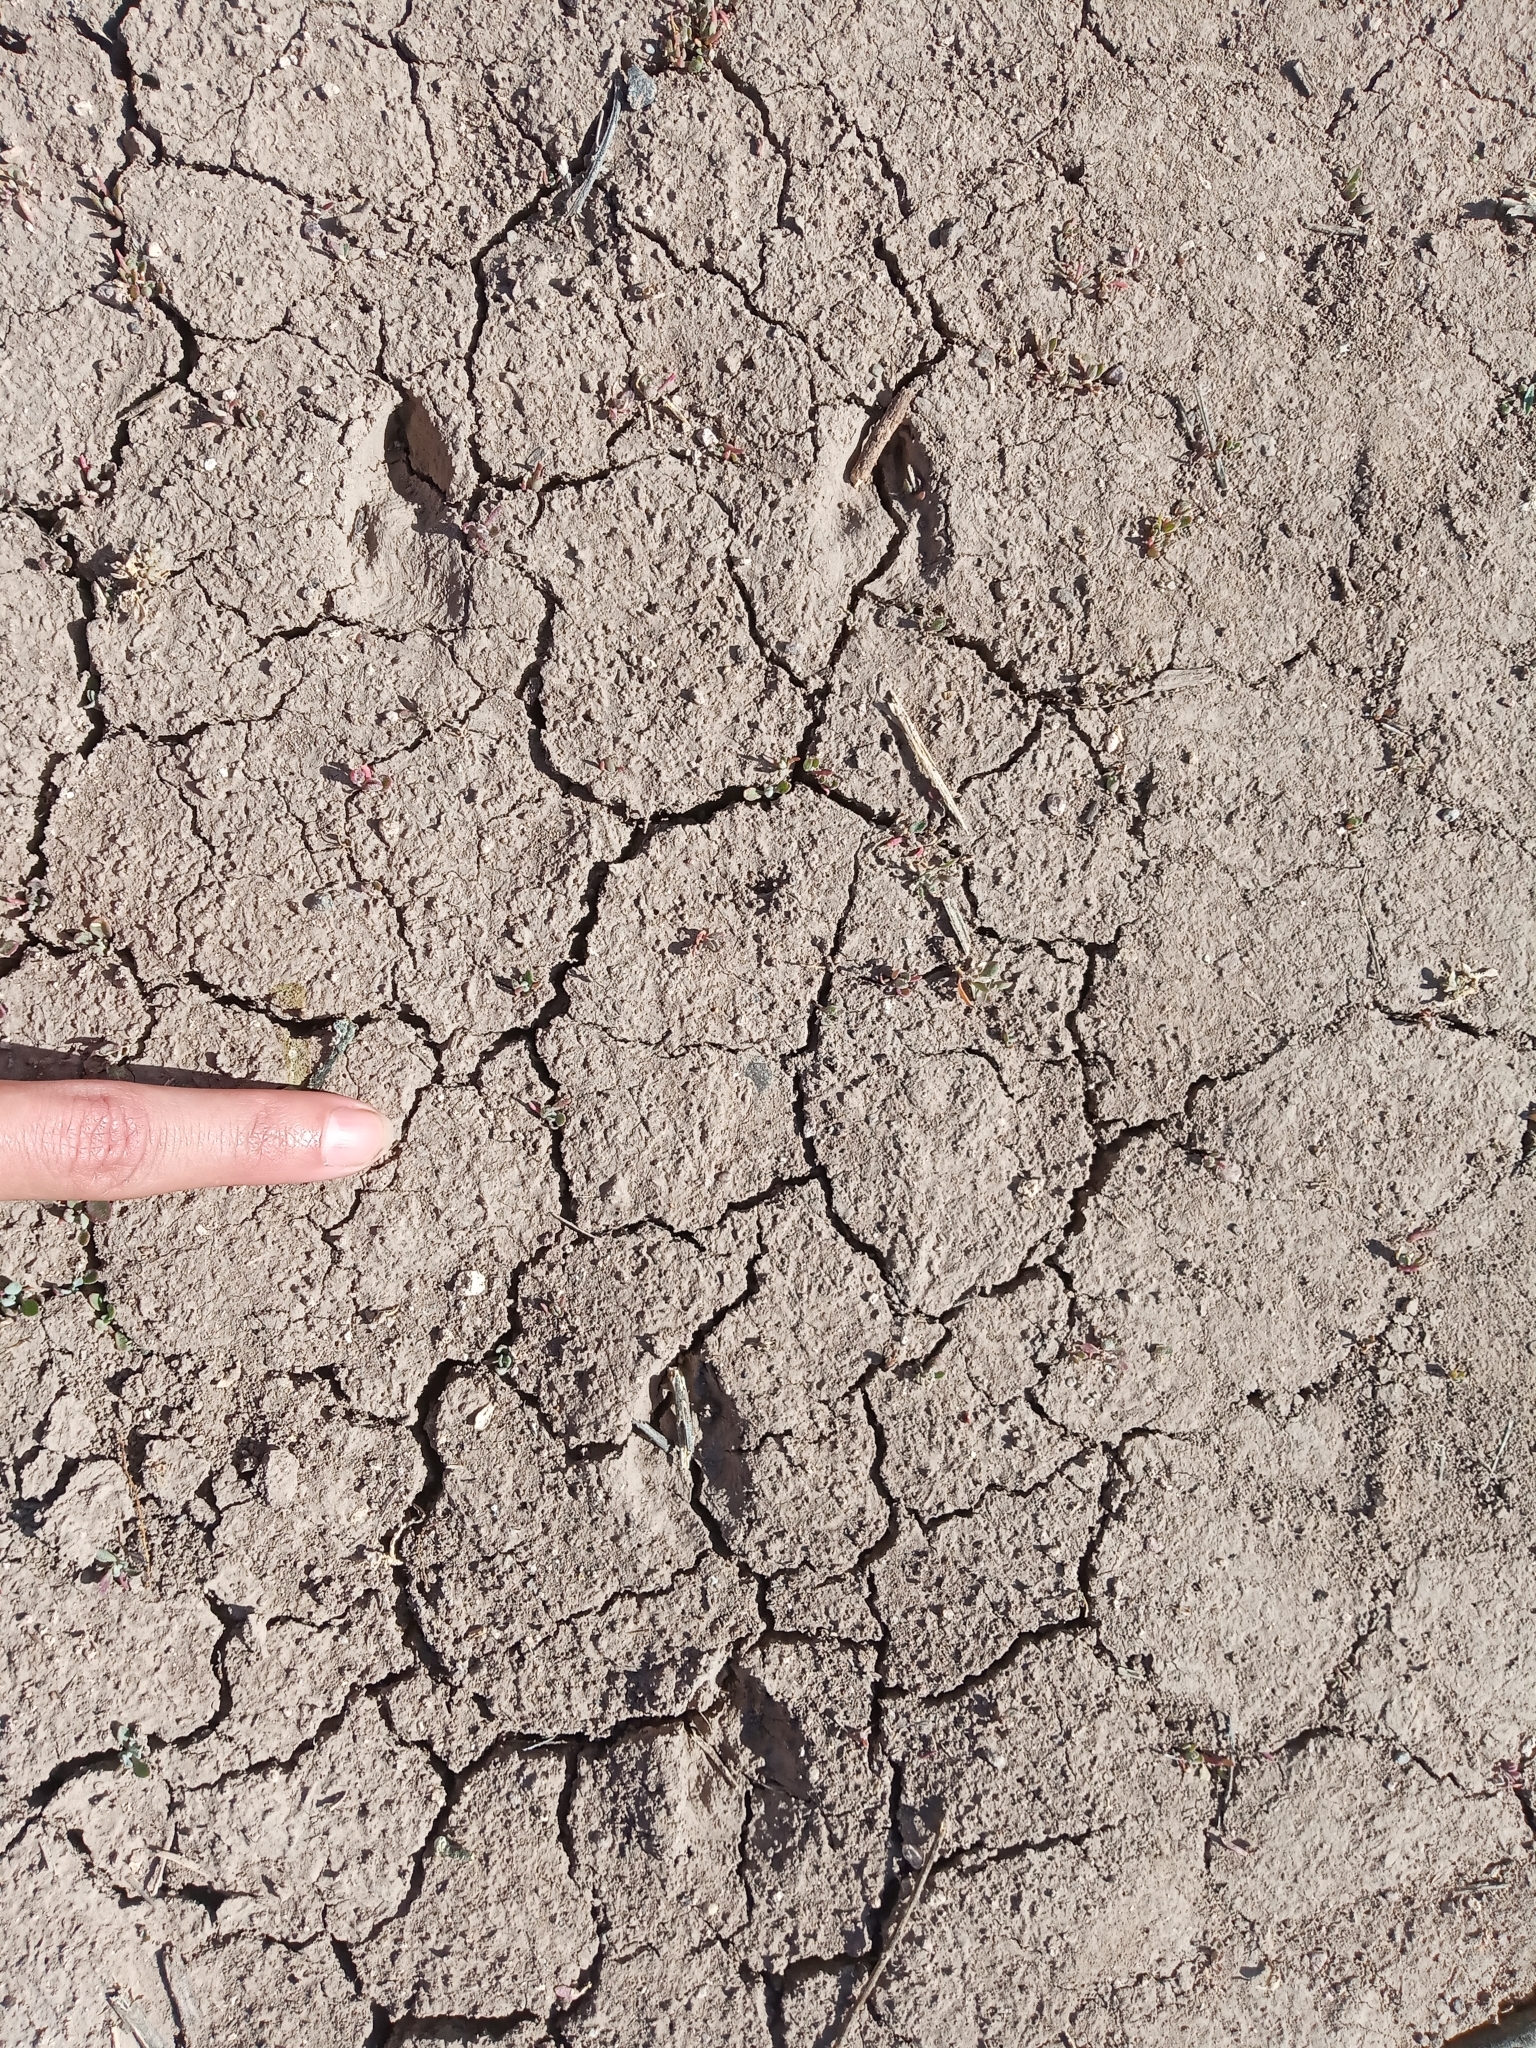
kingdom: Animalia
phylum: Chordata
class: Mammalia
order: Lagomorpha
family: Leporidae
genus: Lepus
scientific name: Lepus californicus
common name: Black-tailed jackrabbit
